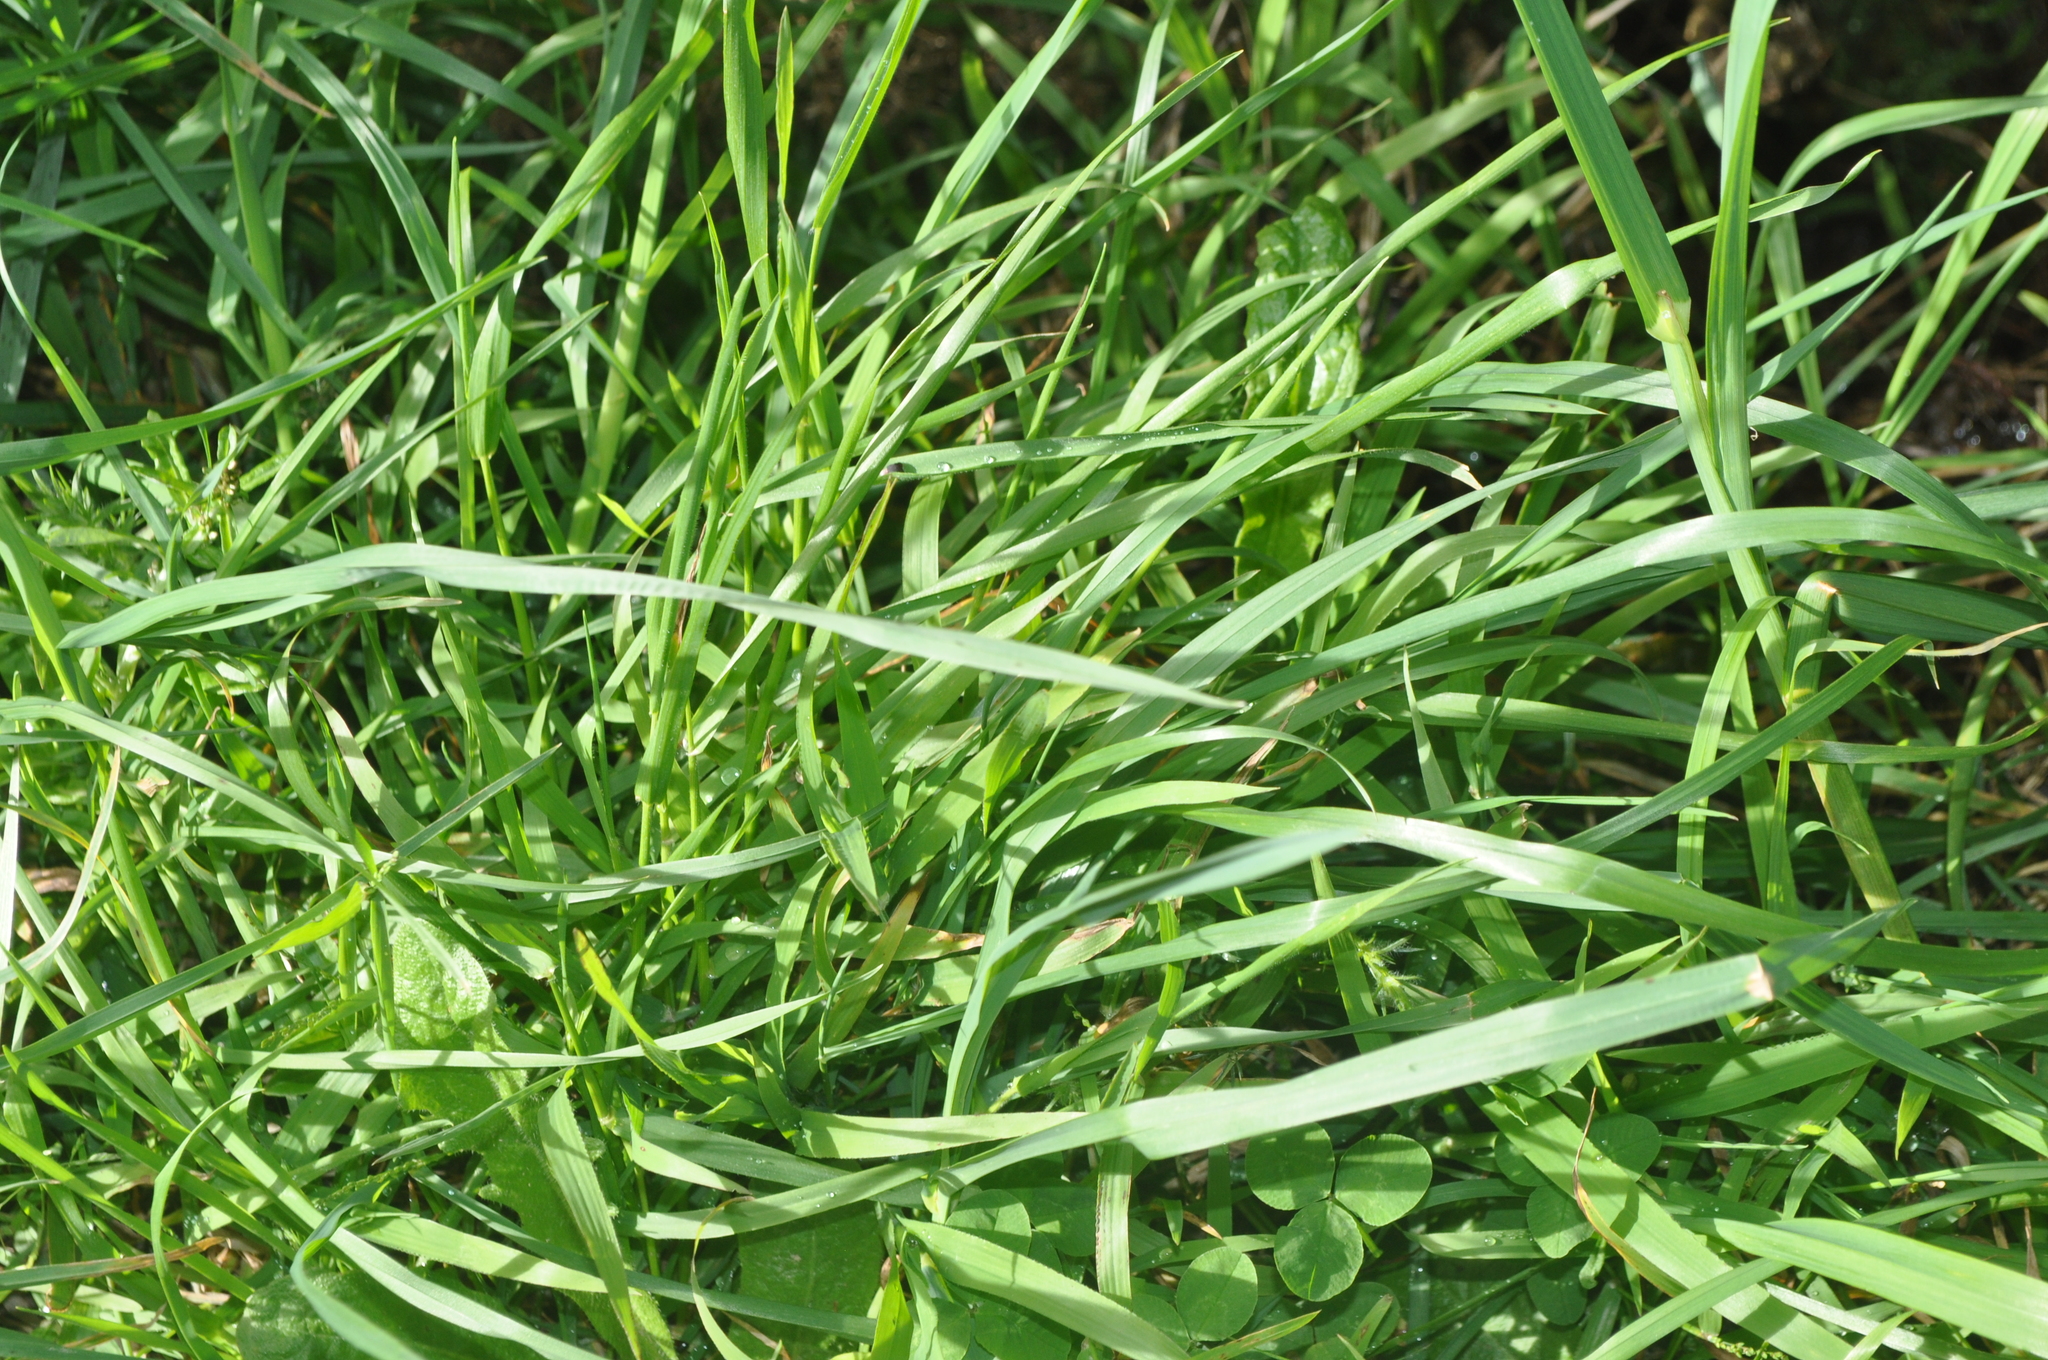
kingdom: Plantae
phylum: Tracheophyta
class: Liliopsida
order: Poales
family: Poaceae
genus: Dactylis
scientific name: Dactylis glomerata
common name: Orchardgrass
